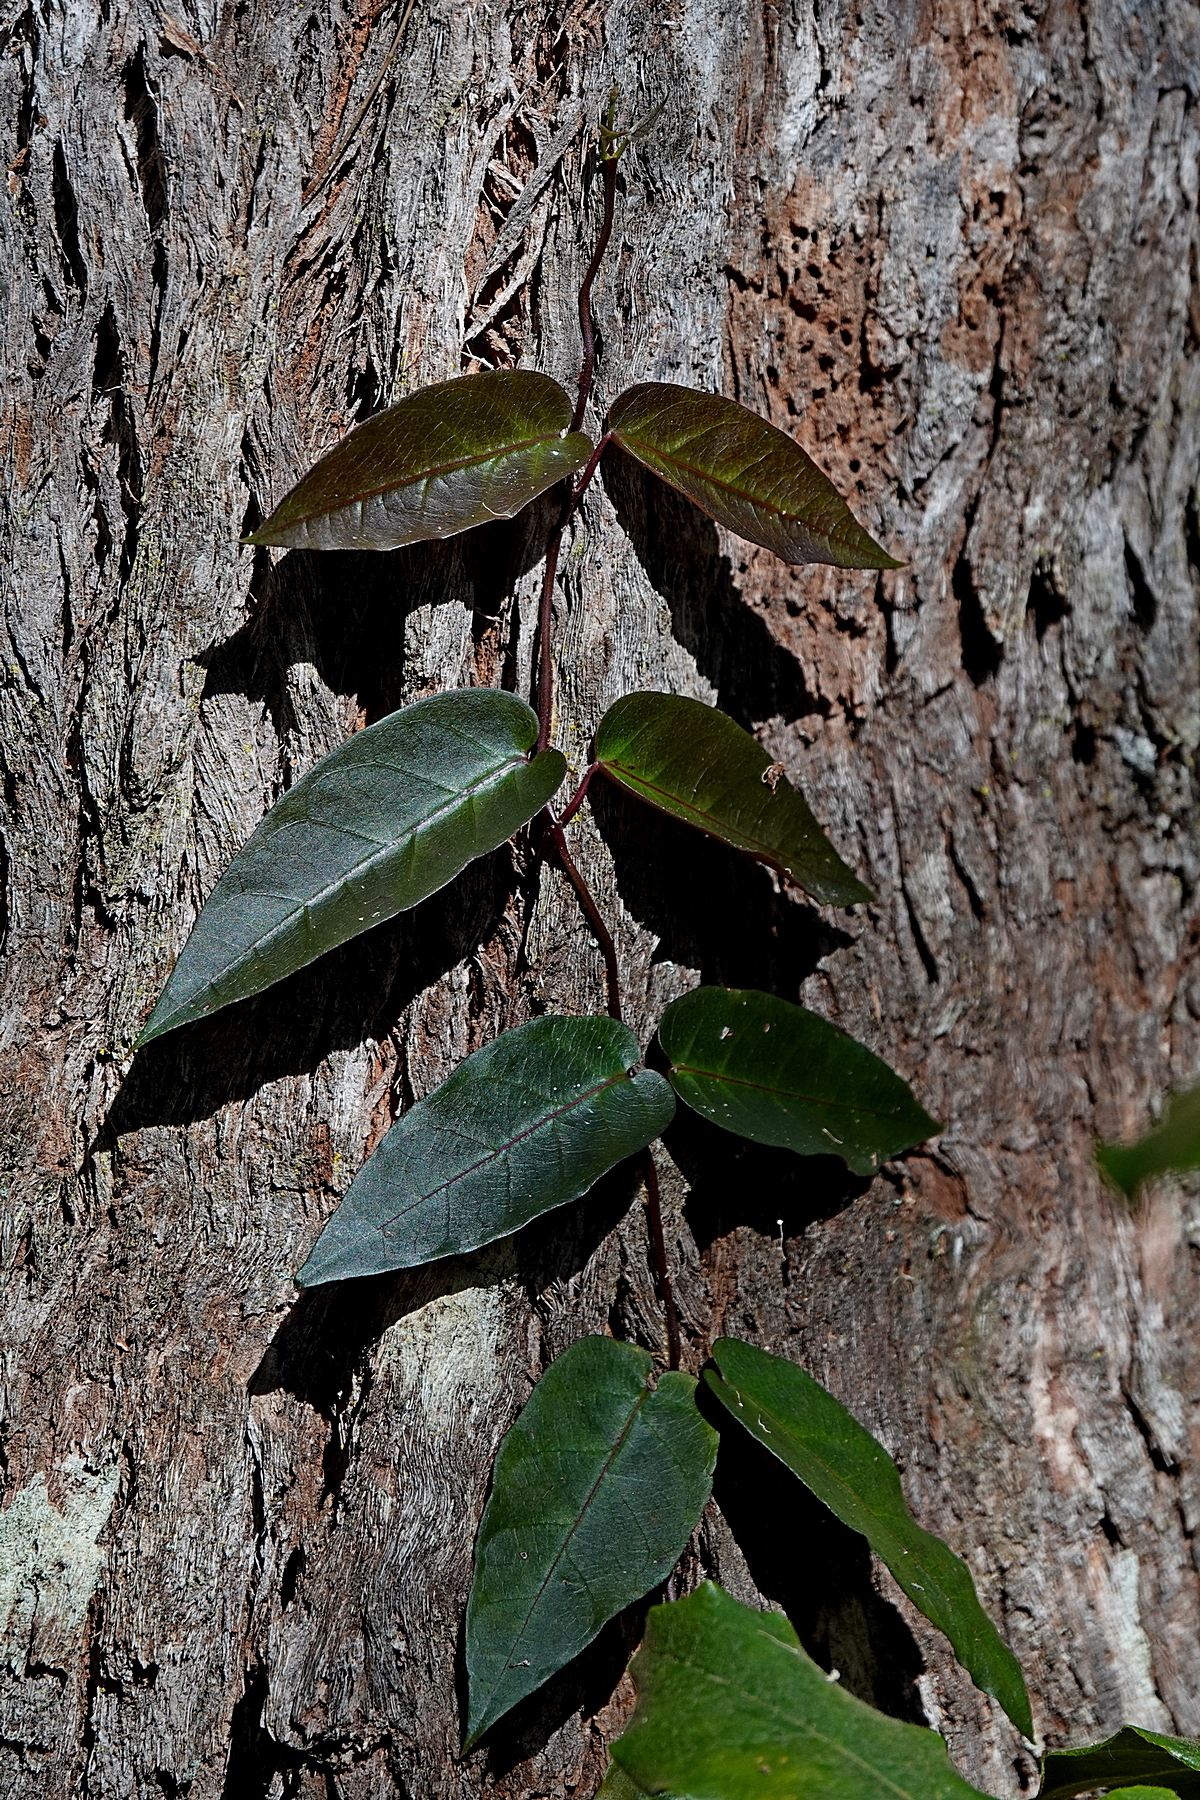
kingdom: Plantae
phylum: Tracheophyta
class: Magnoliopsida
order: Gentianales
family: Apocynaceae
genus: Parsonsia
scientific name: Parsonsia straminea
